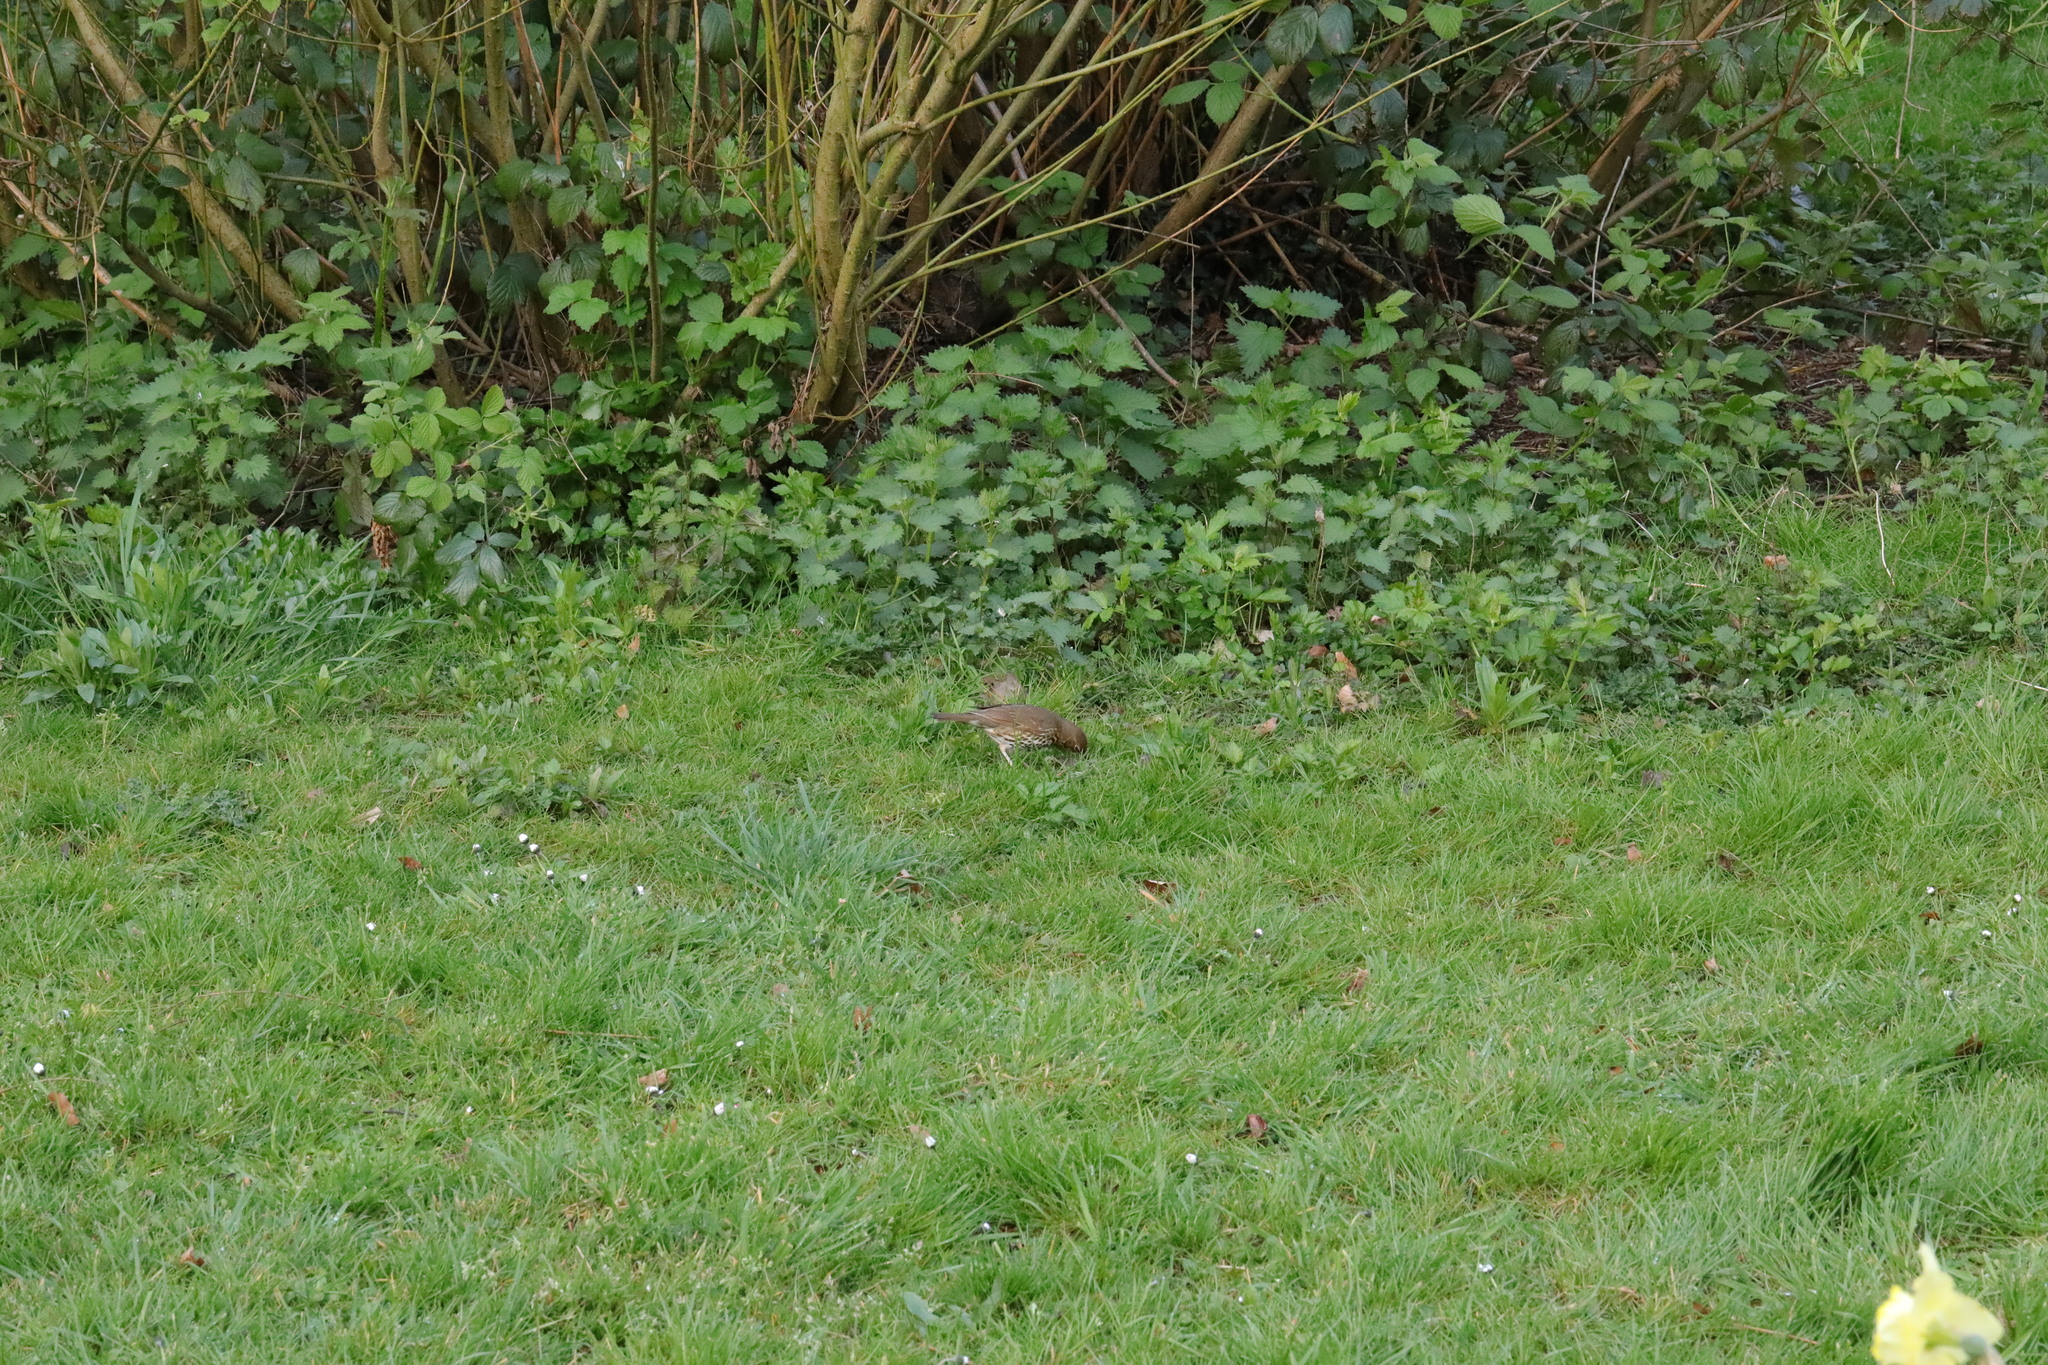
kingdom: Animalia
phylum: Chordata
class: Aves
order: Passeriformes
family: Turdidae
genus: Turdus
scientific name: Turdus philomelos
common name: Song thrush
